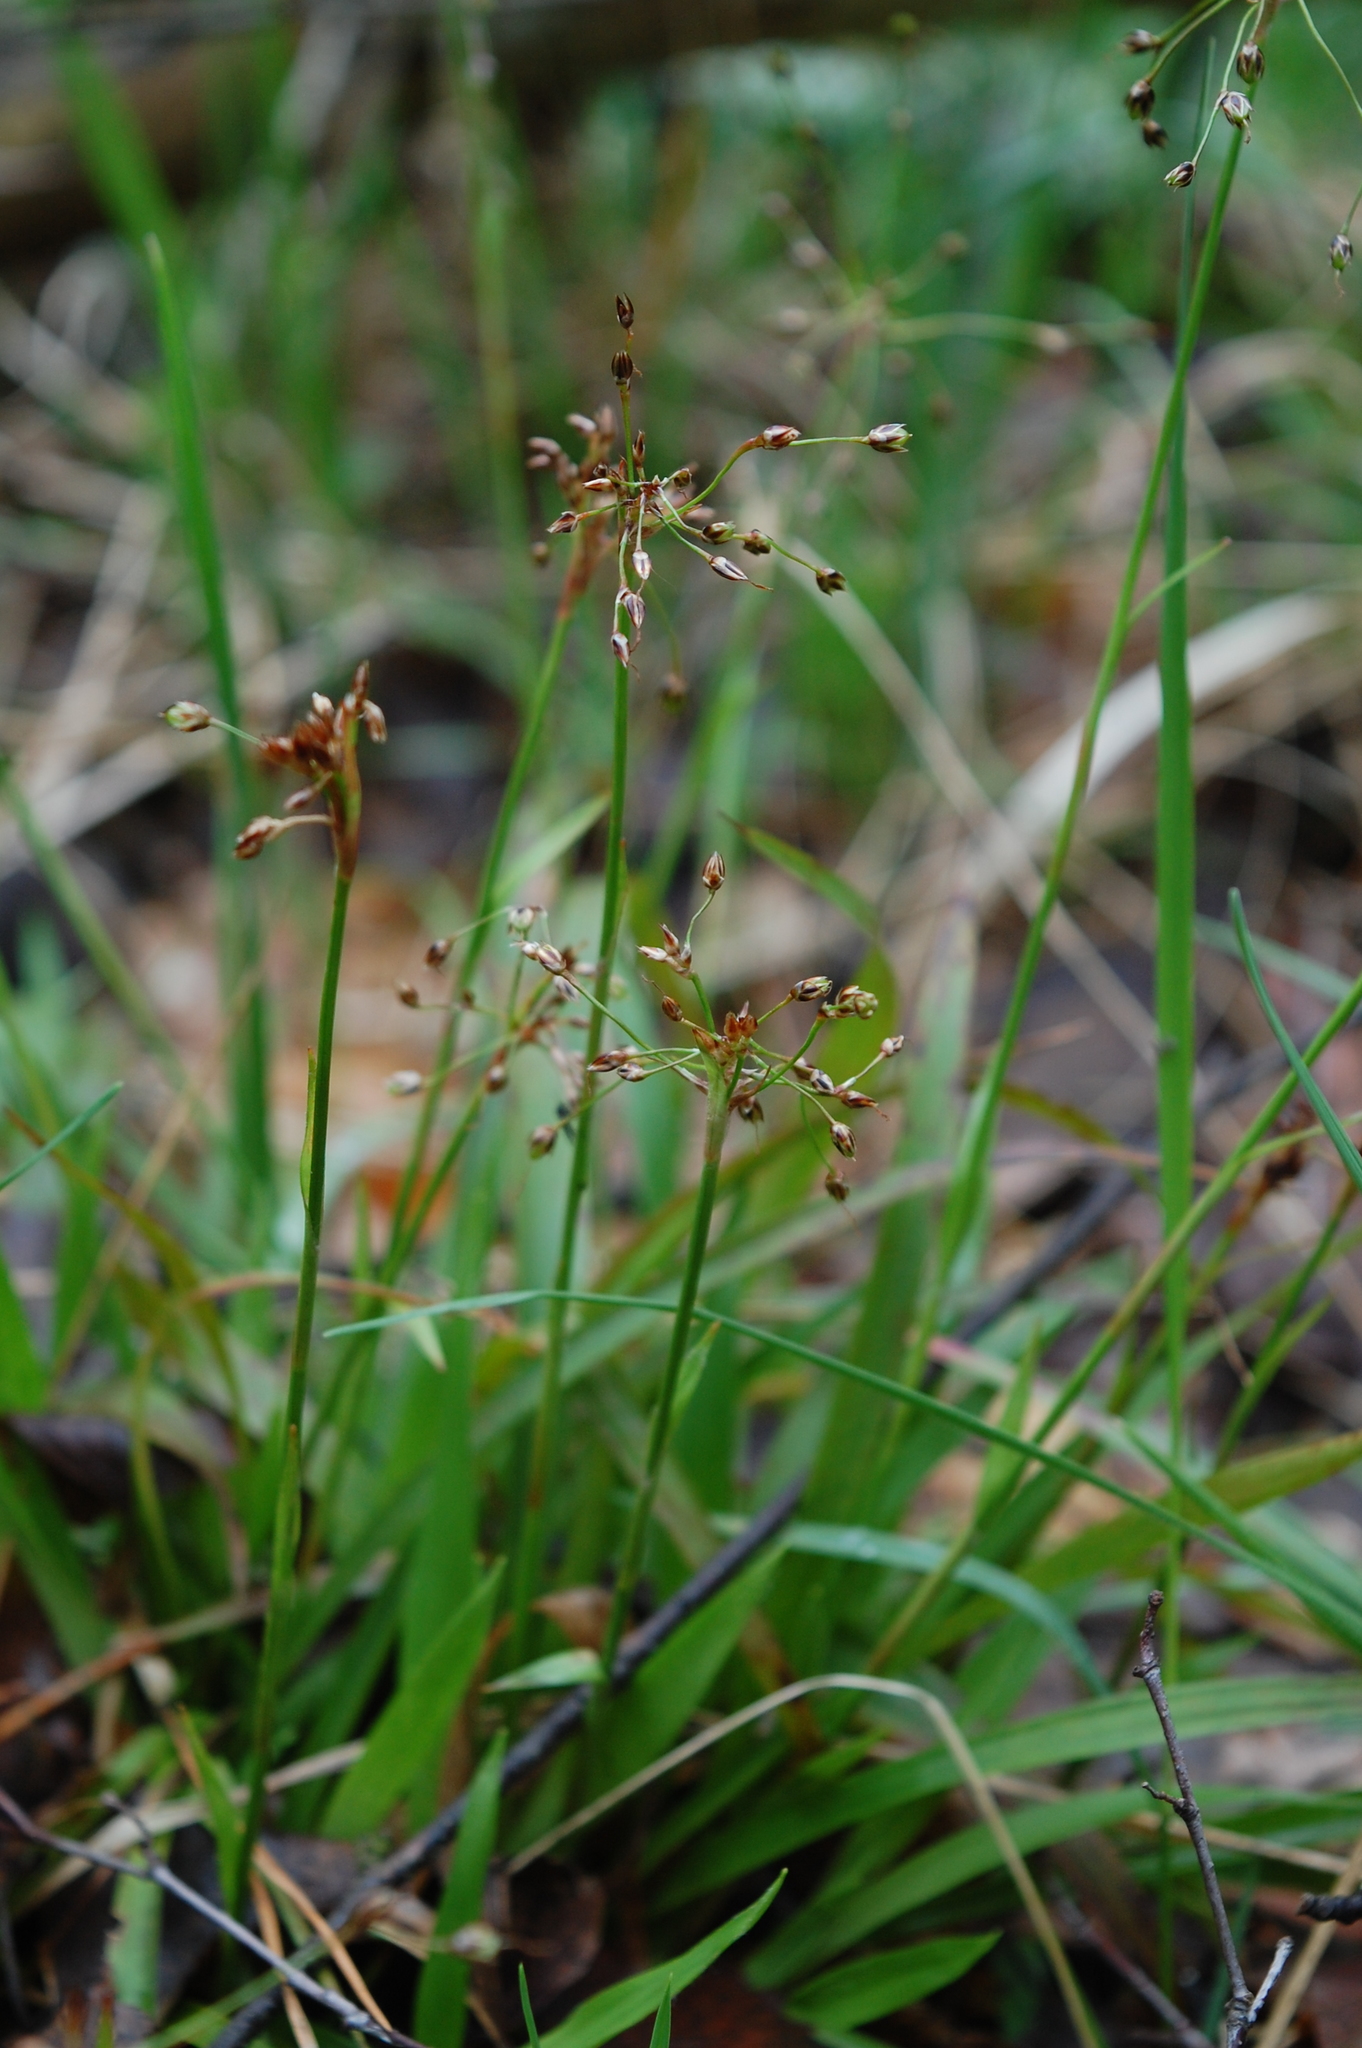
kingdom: Plantae
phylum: Tracheophyta
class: Liliopsida
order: Poales
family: Juncaceae
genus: Luzula
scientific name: Luzula pilosa
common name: Hairy wood-rush
